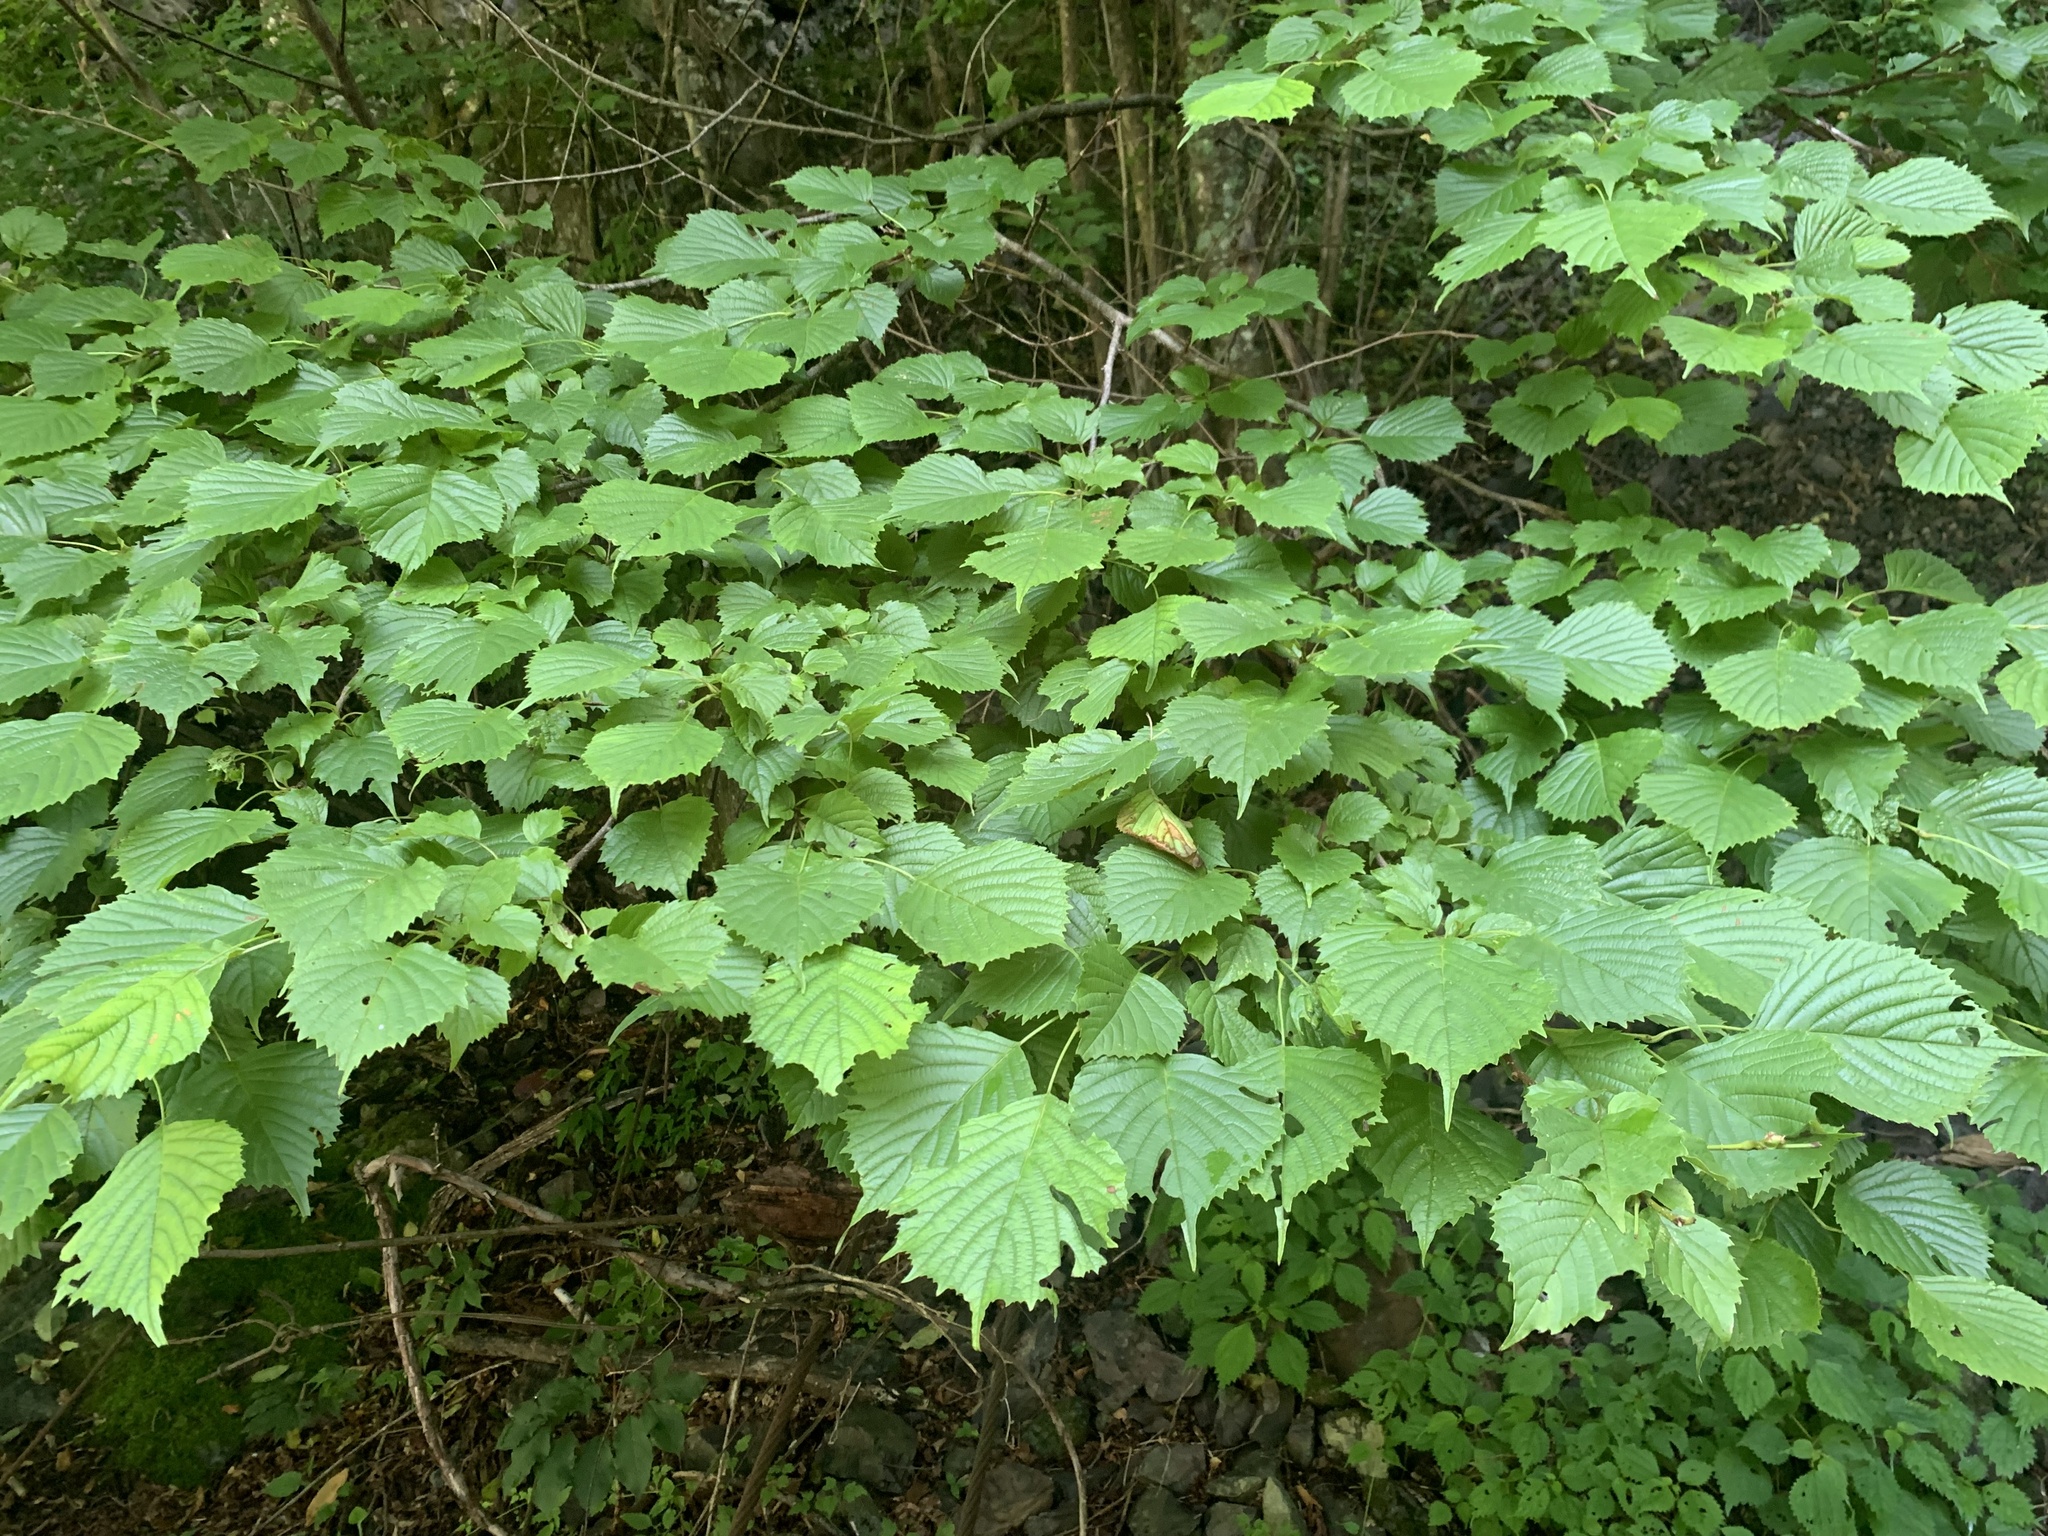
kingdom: Plantae
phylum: Tracheophyta
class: Magnoliopsida
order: Ranunculales
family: Eupteleaceae
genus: Euptelea
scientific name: Euptelea polyandra
